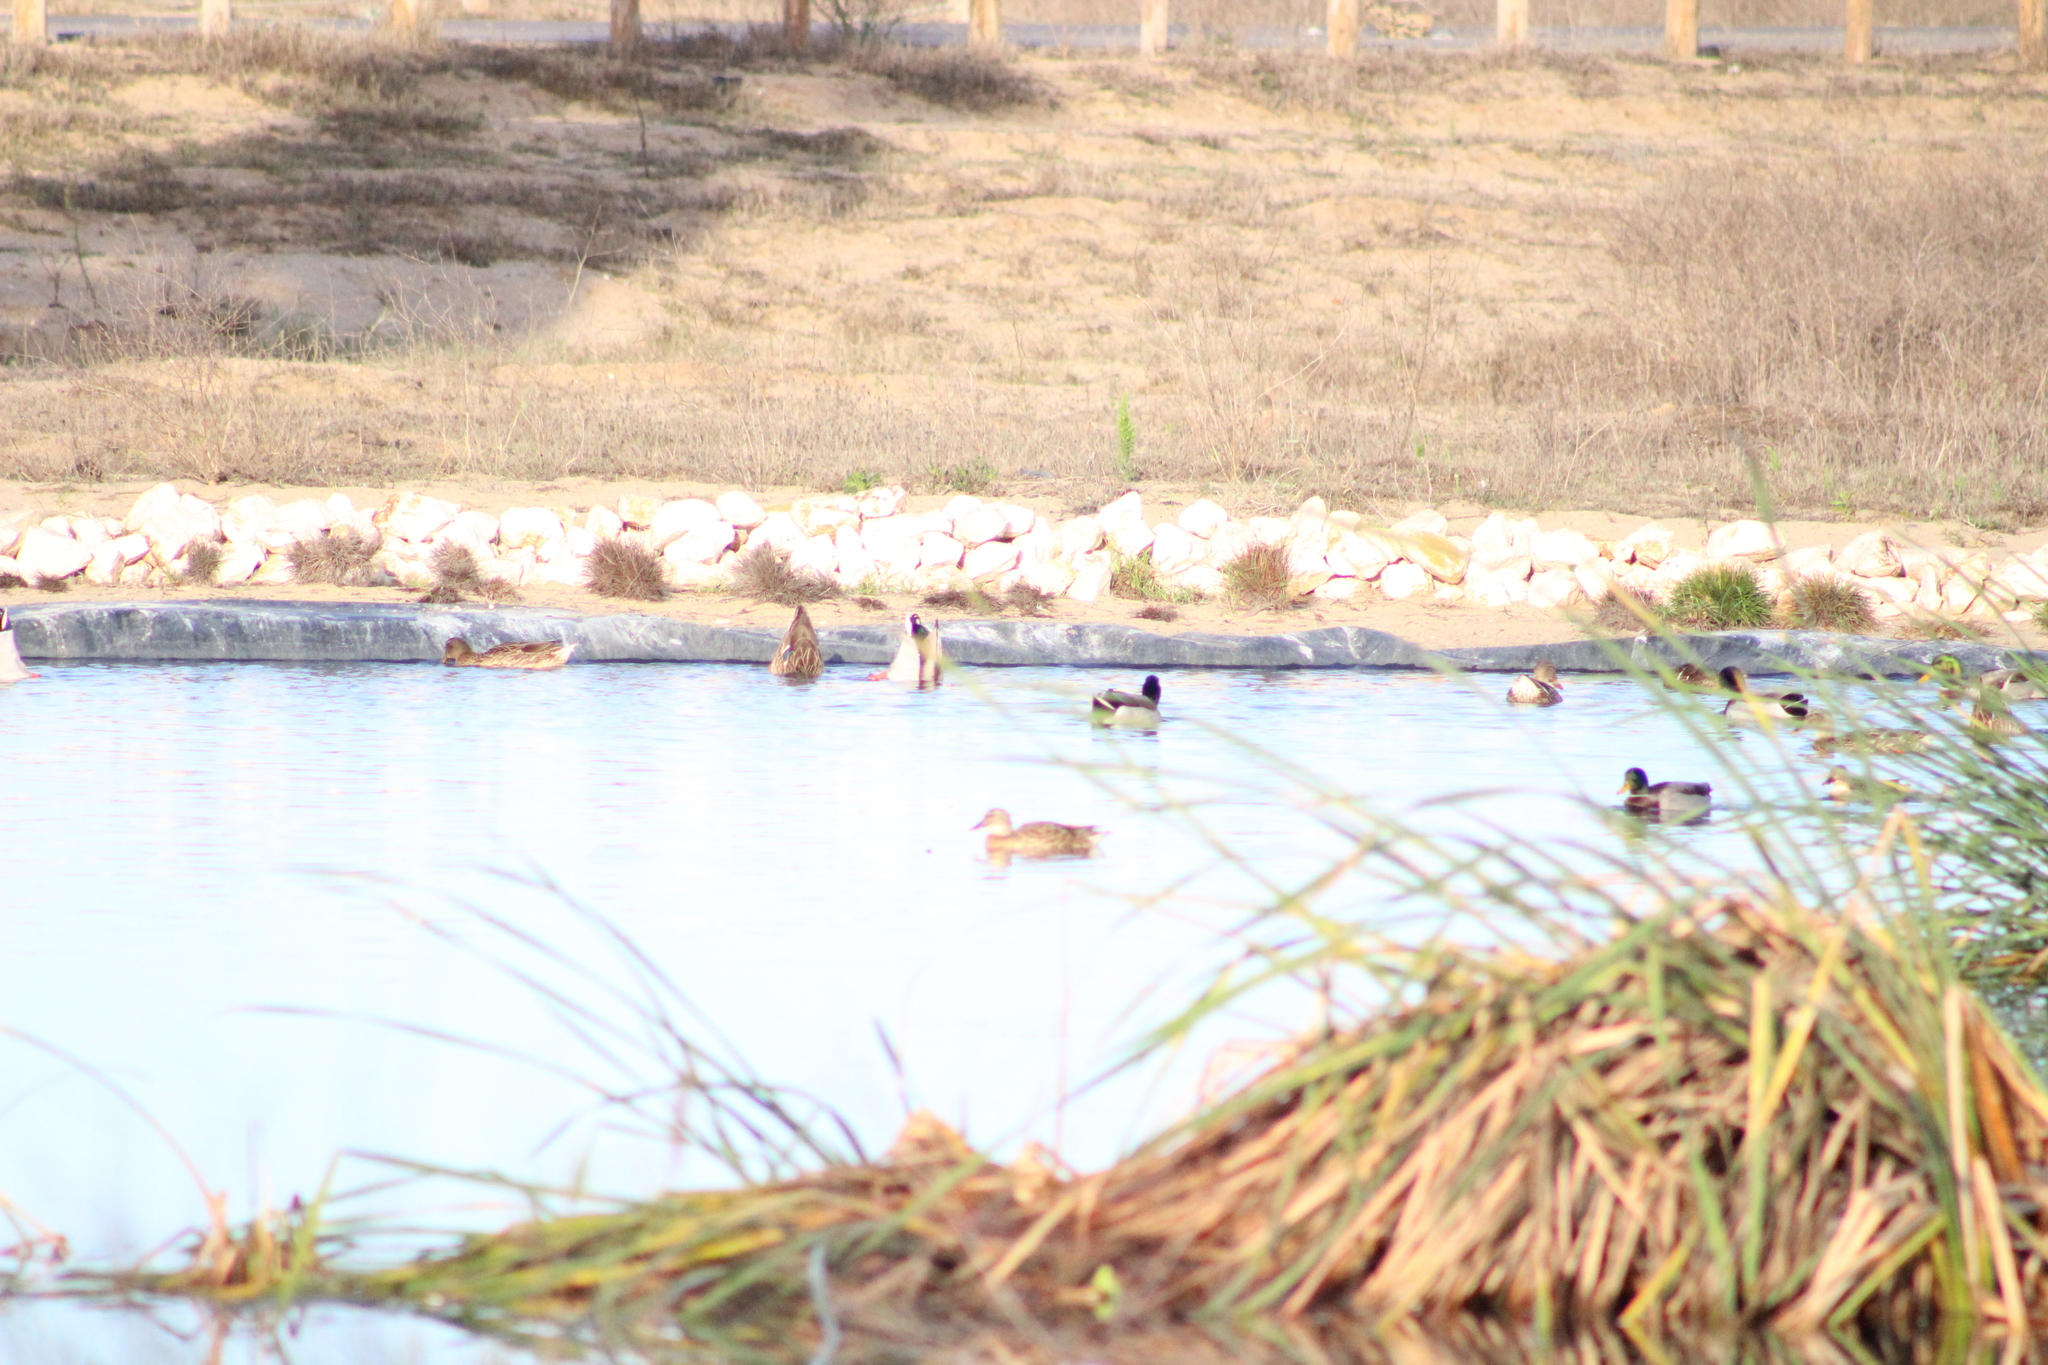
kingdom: Animalia
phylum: Chordata
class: Aves
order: Anseriformes
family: Anatidae
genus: Anas
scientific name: Anas platyrhynchos
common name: Mallard
